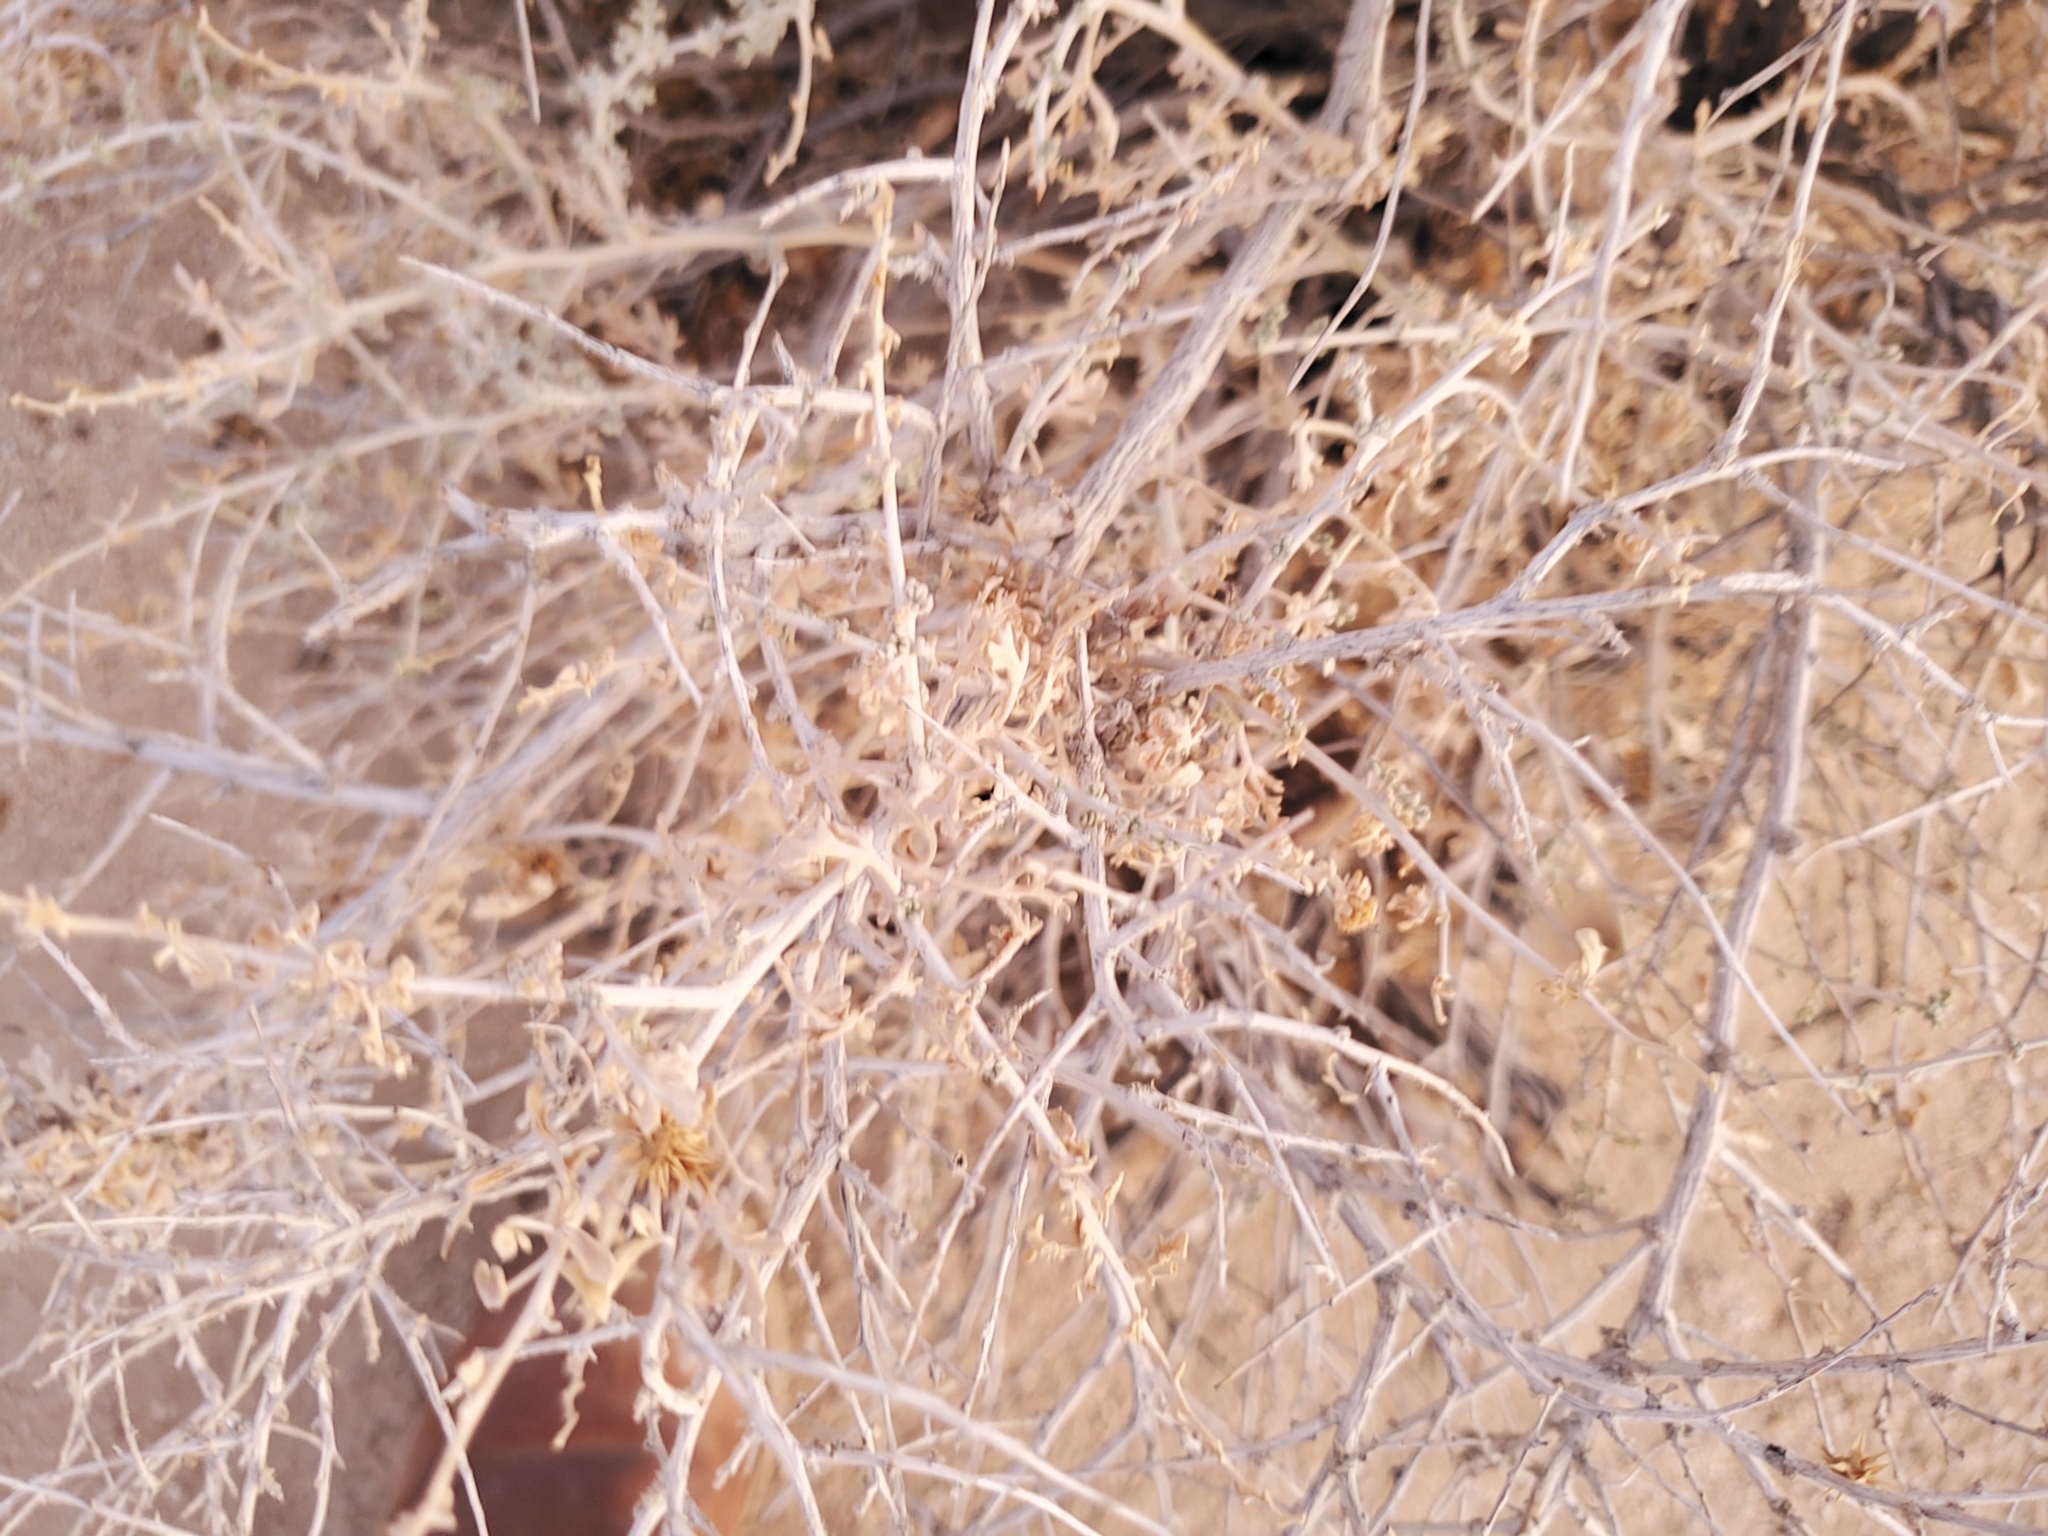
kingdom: Plantae
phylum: Tracheophyta
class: Magnoliopsida
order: Asterales
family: Asteraceae
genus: Ambrosia
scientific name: Ambrosia dumosa
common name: Bur-sage
